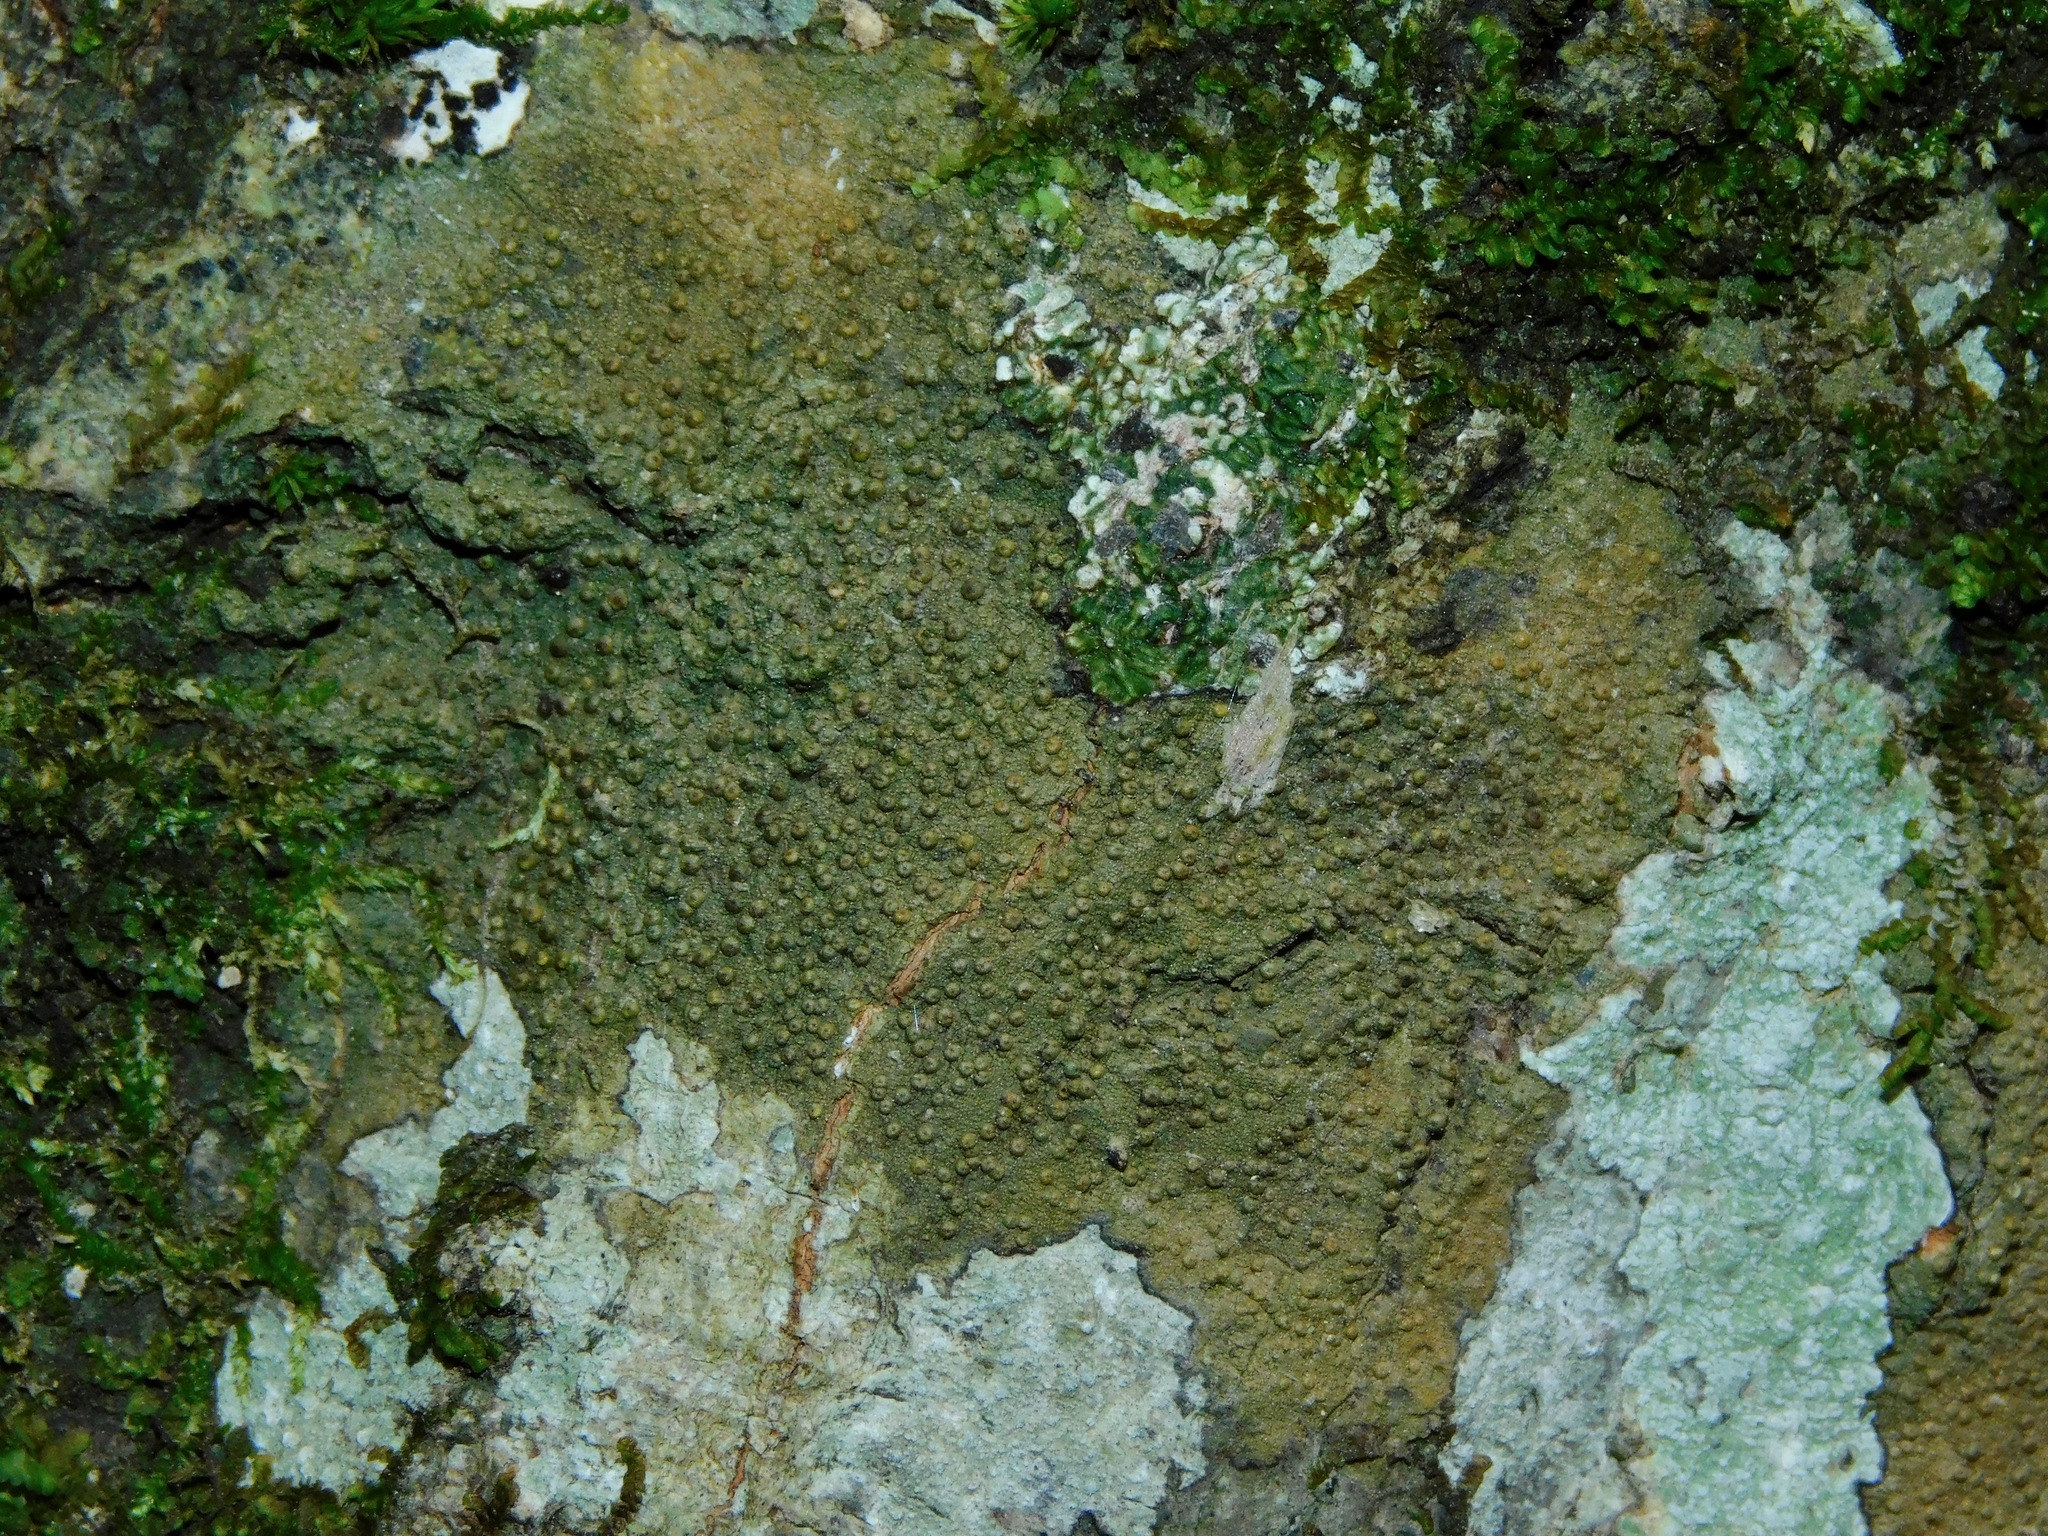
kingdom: Fungi
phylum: Ascomycota
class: Lecanoromycetes
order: Pertusariales
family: Pertusariaceae
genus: Porina
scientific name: Porina heterospora
